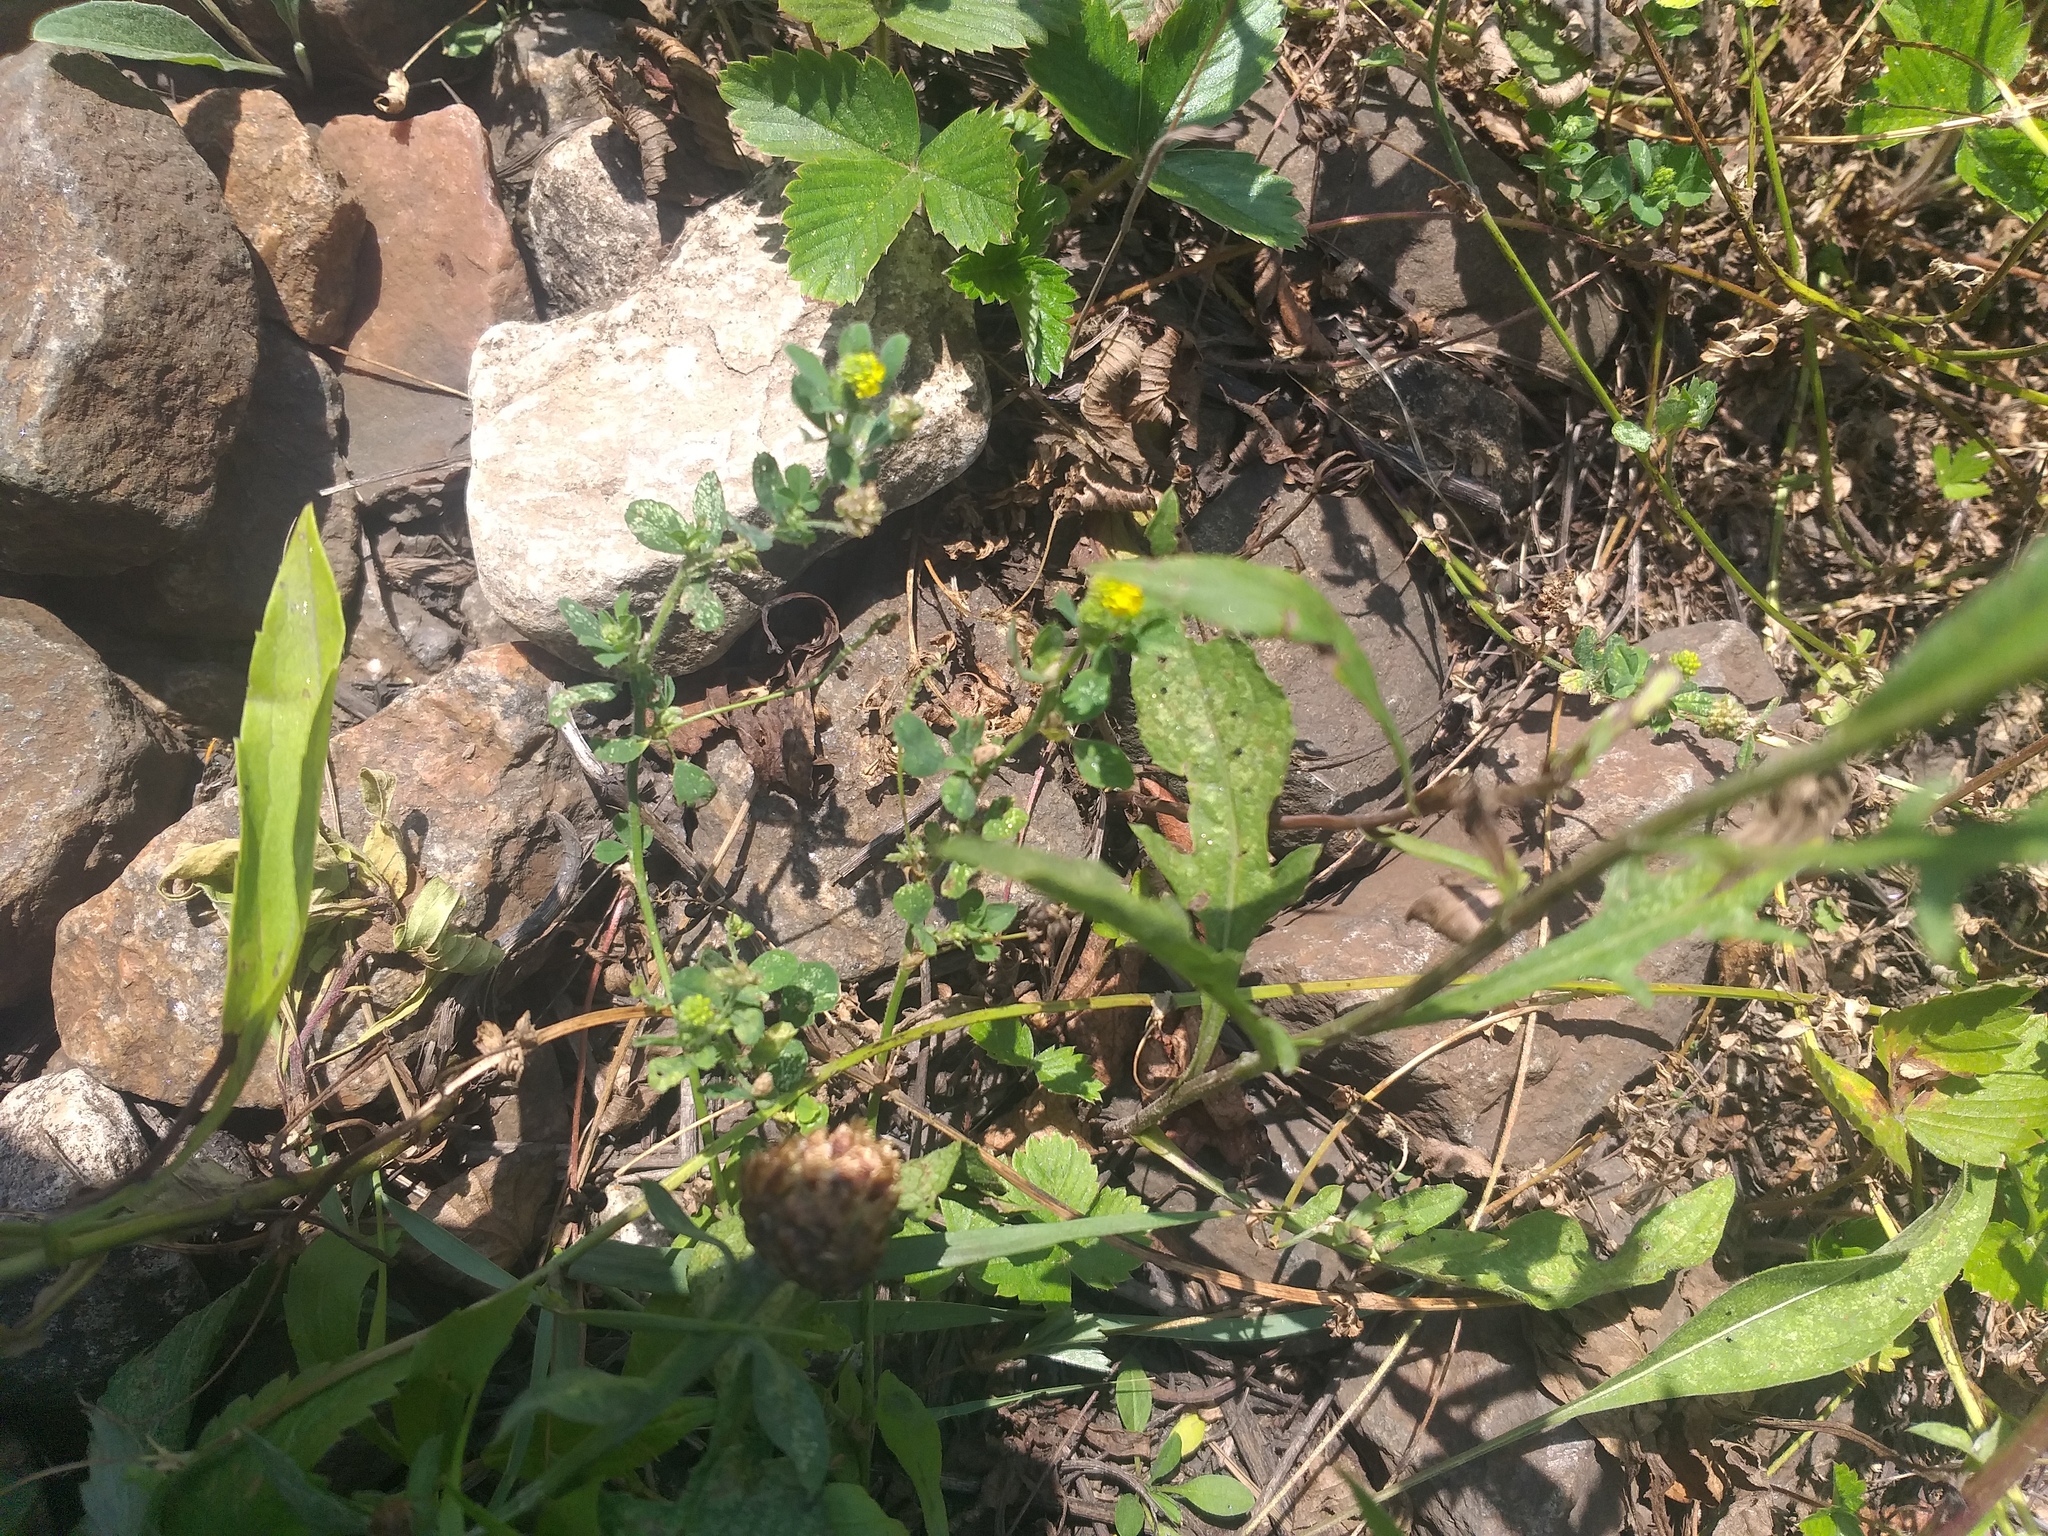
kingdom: Plantae
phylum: Tracheophyta
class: Magnoliopsida
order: Fabales
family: Fabaceae
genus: Medicago
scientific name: Medicago lupulina
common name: Black medick
